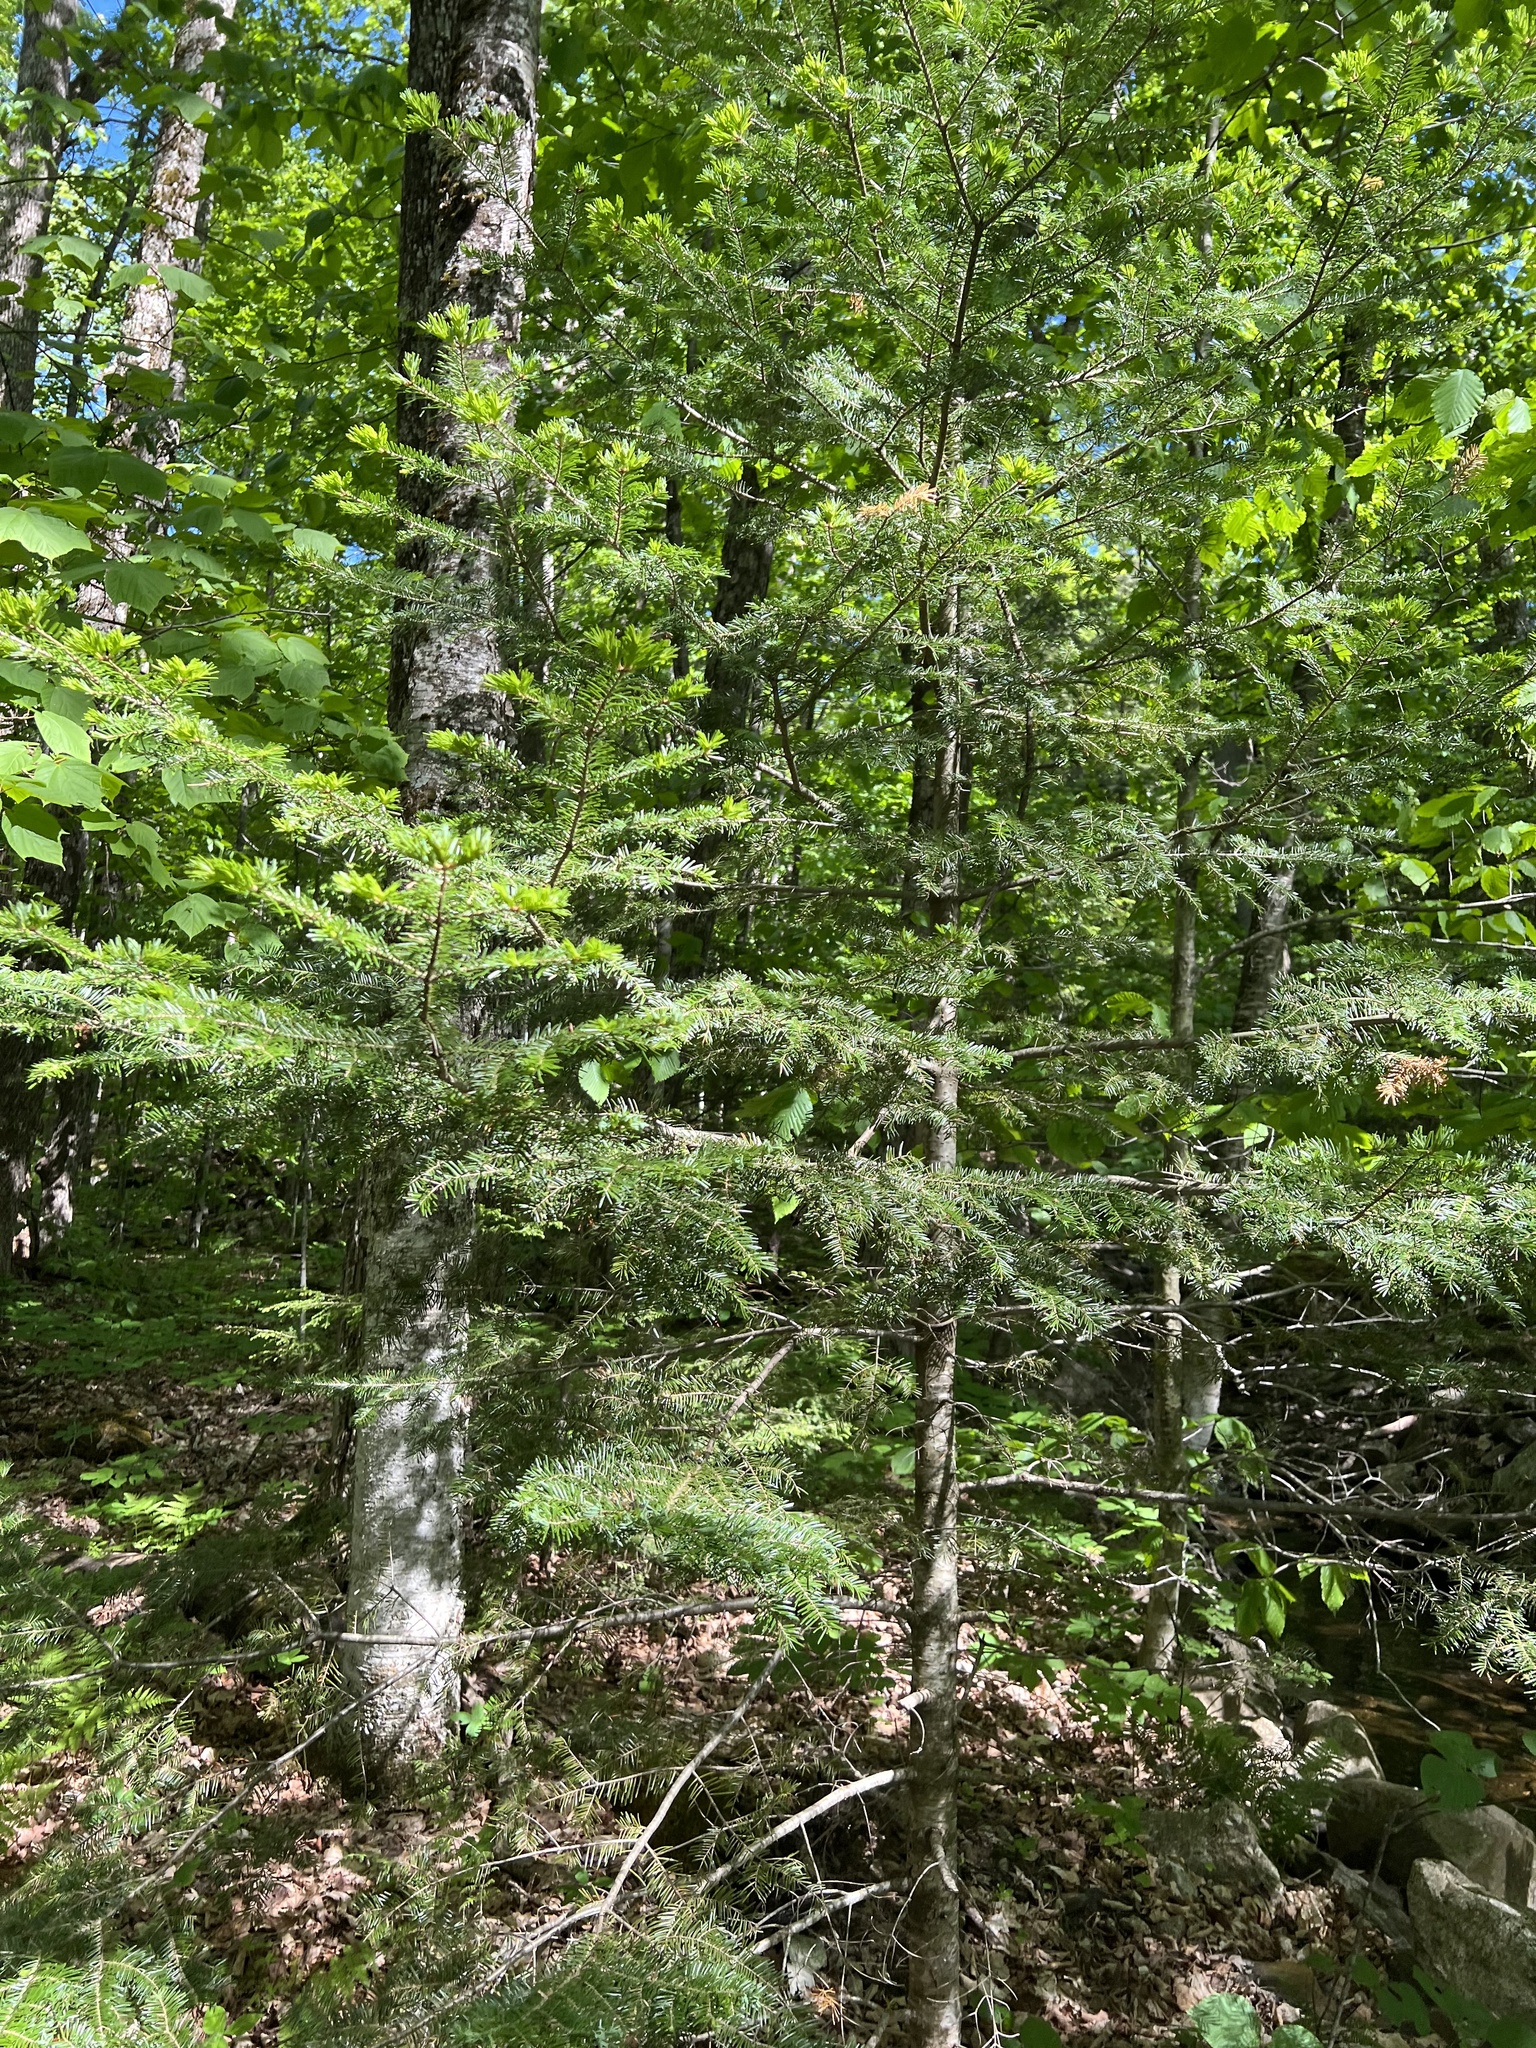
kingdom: Plantae
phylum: Tracheophyta
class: Pinopsida
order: Pinales
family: Pinaceae
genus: Abies
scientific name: Abies balsamea
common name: Balsam fir
